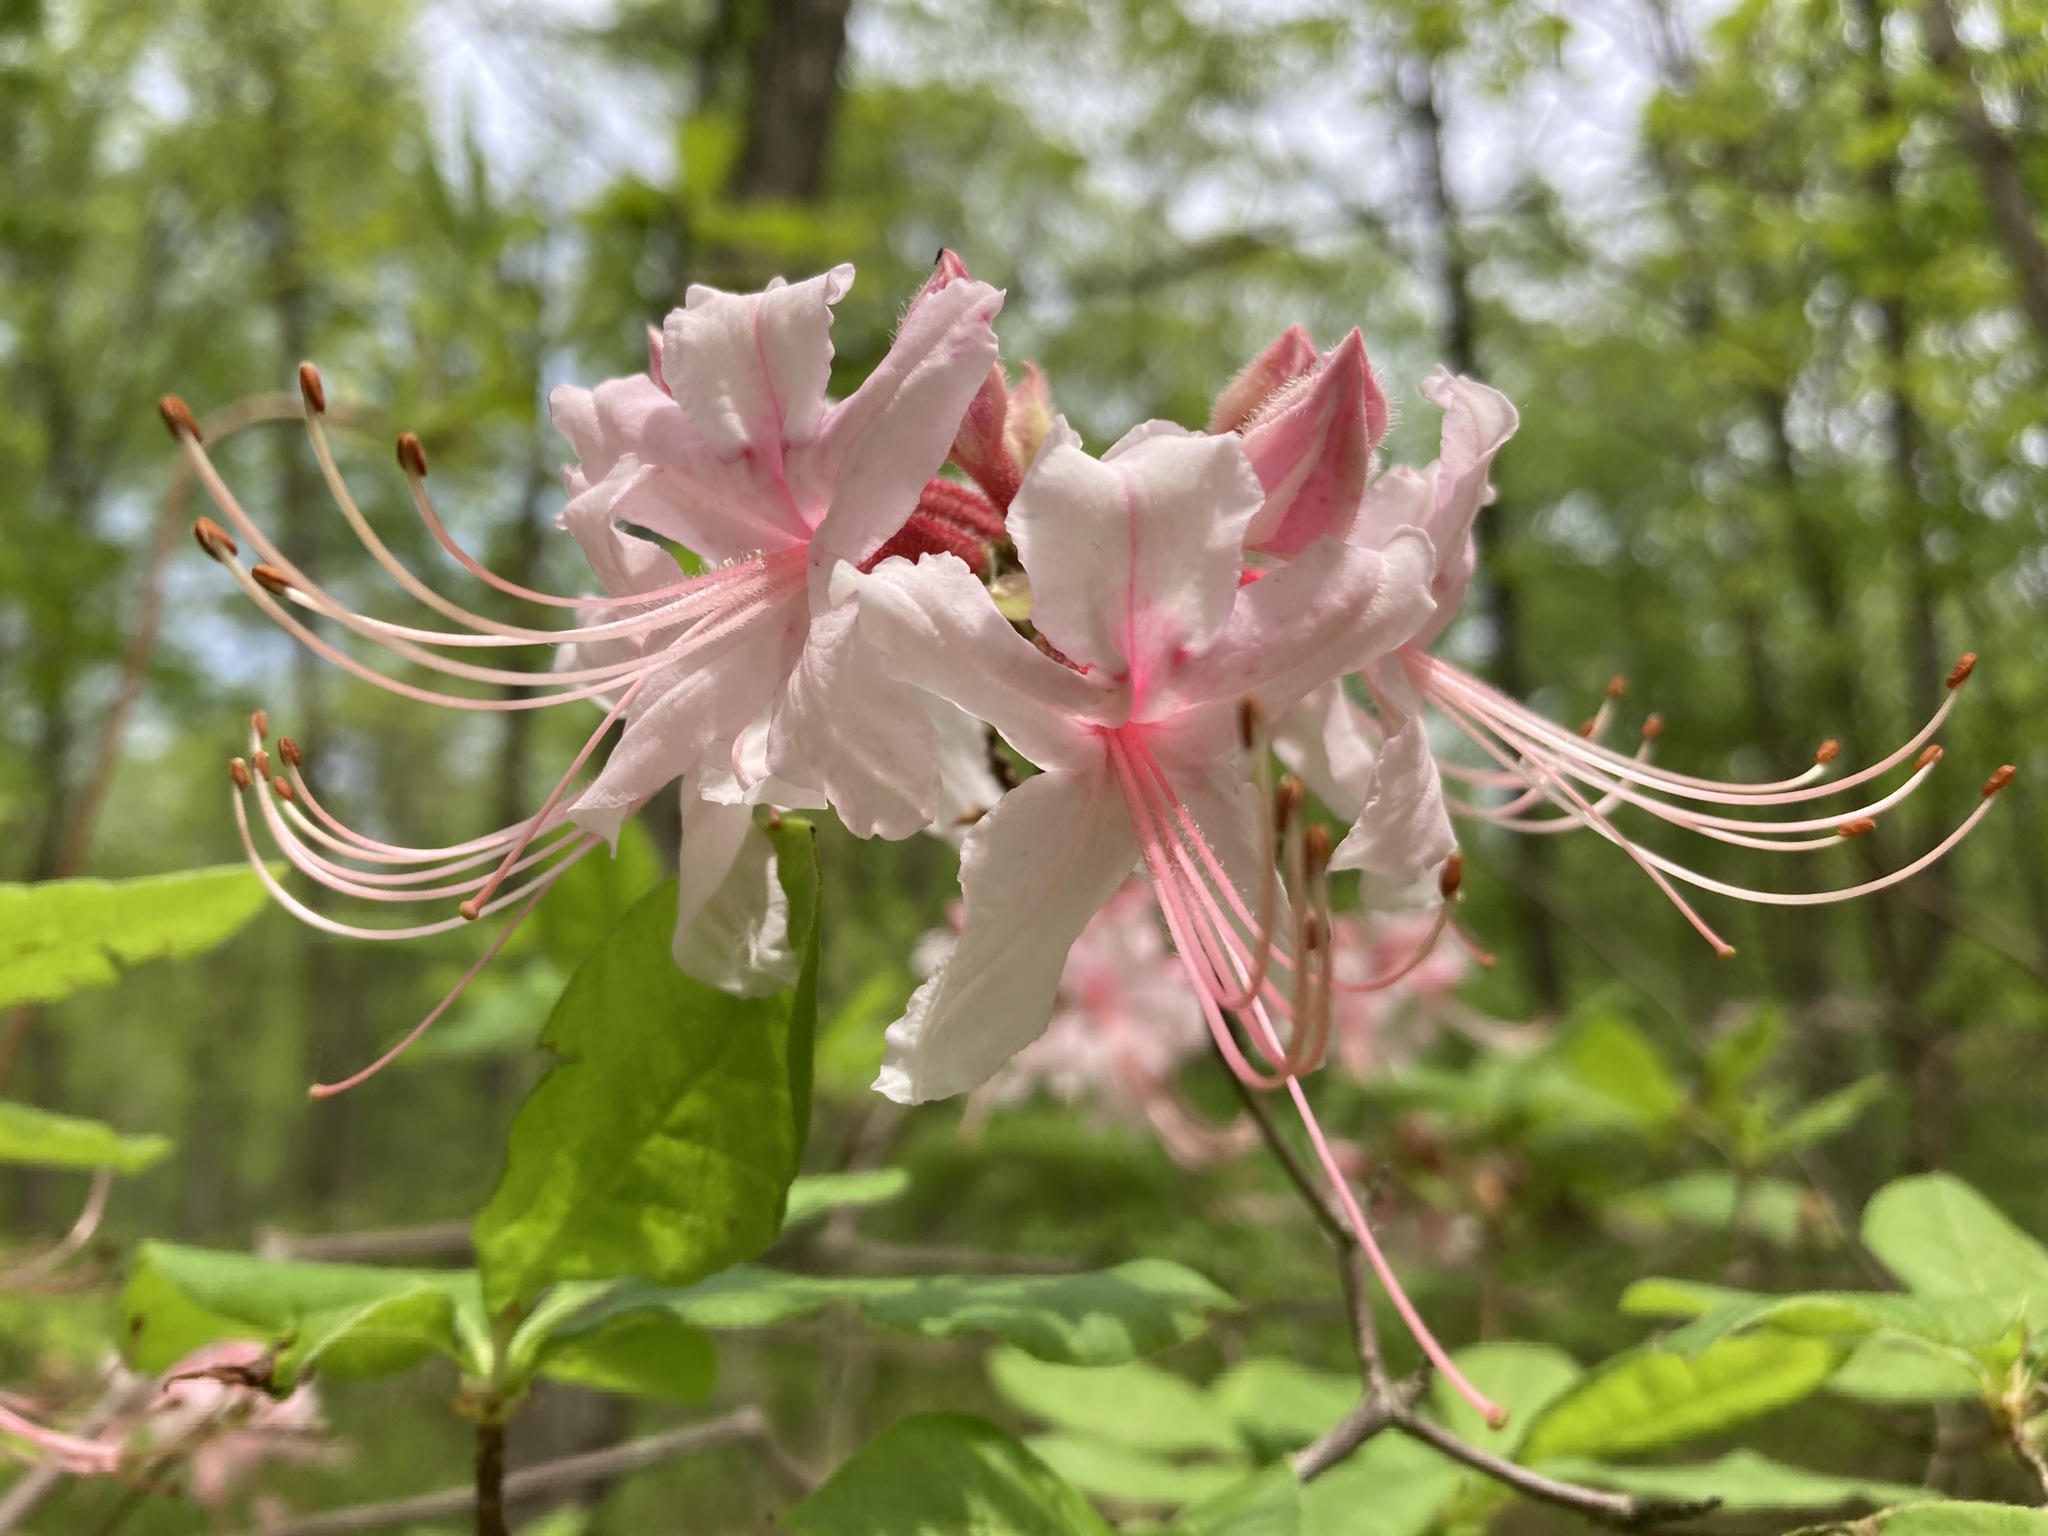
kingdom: Plantae
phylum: Tracheophyta
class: Magnoliopsida
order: Ericales
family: Ericaceae
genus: Rhododendron
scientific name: Rhododendron periclymenoides
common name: Election-pink
